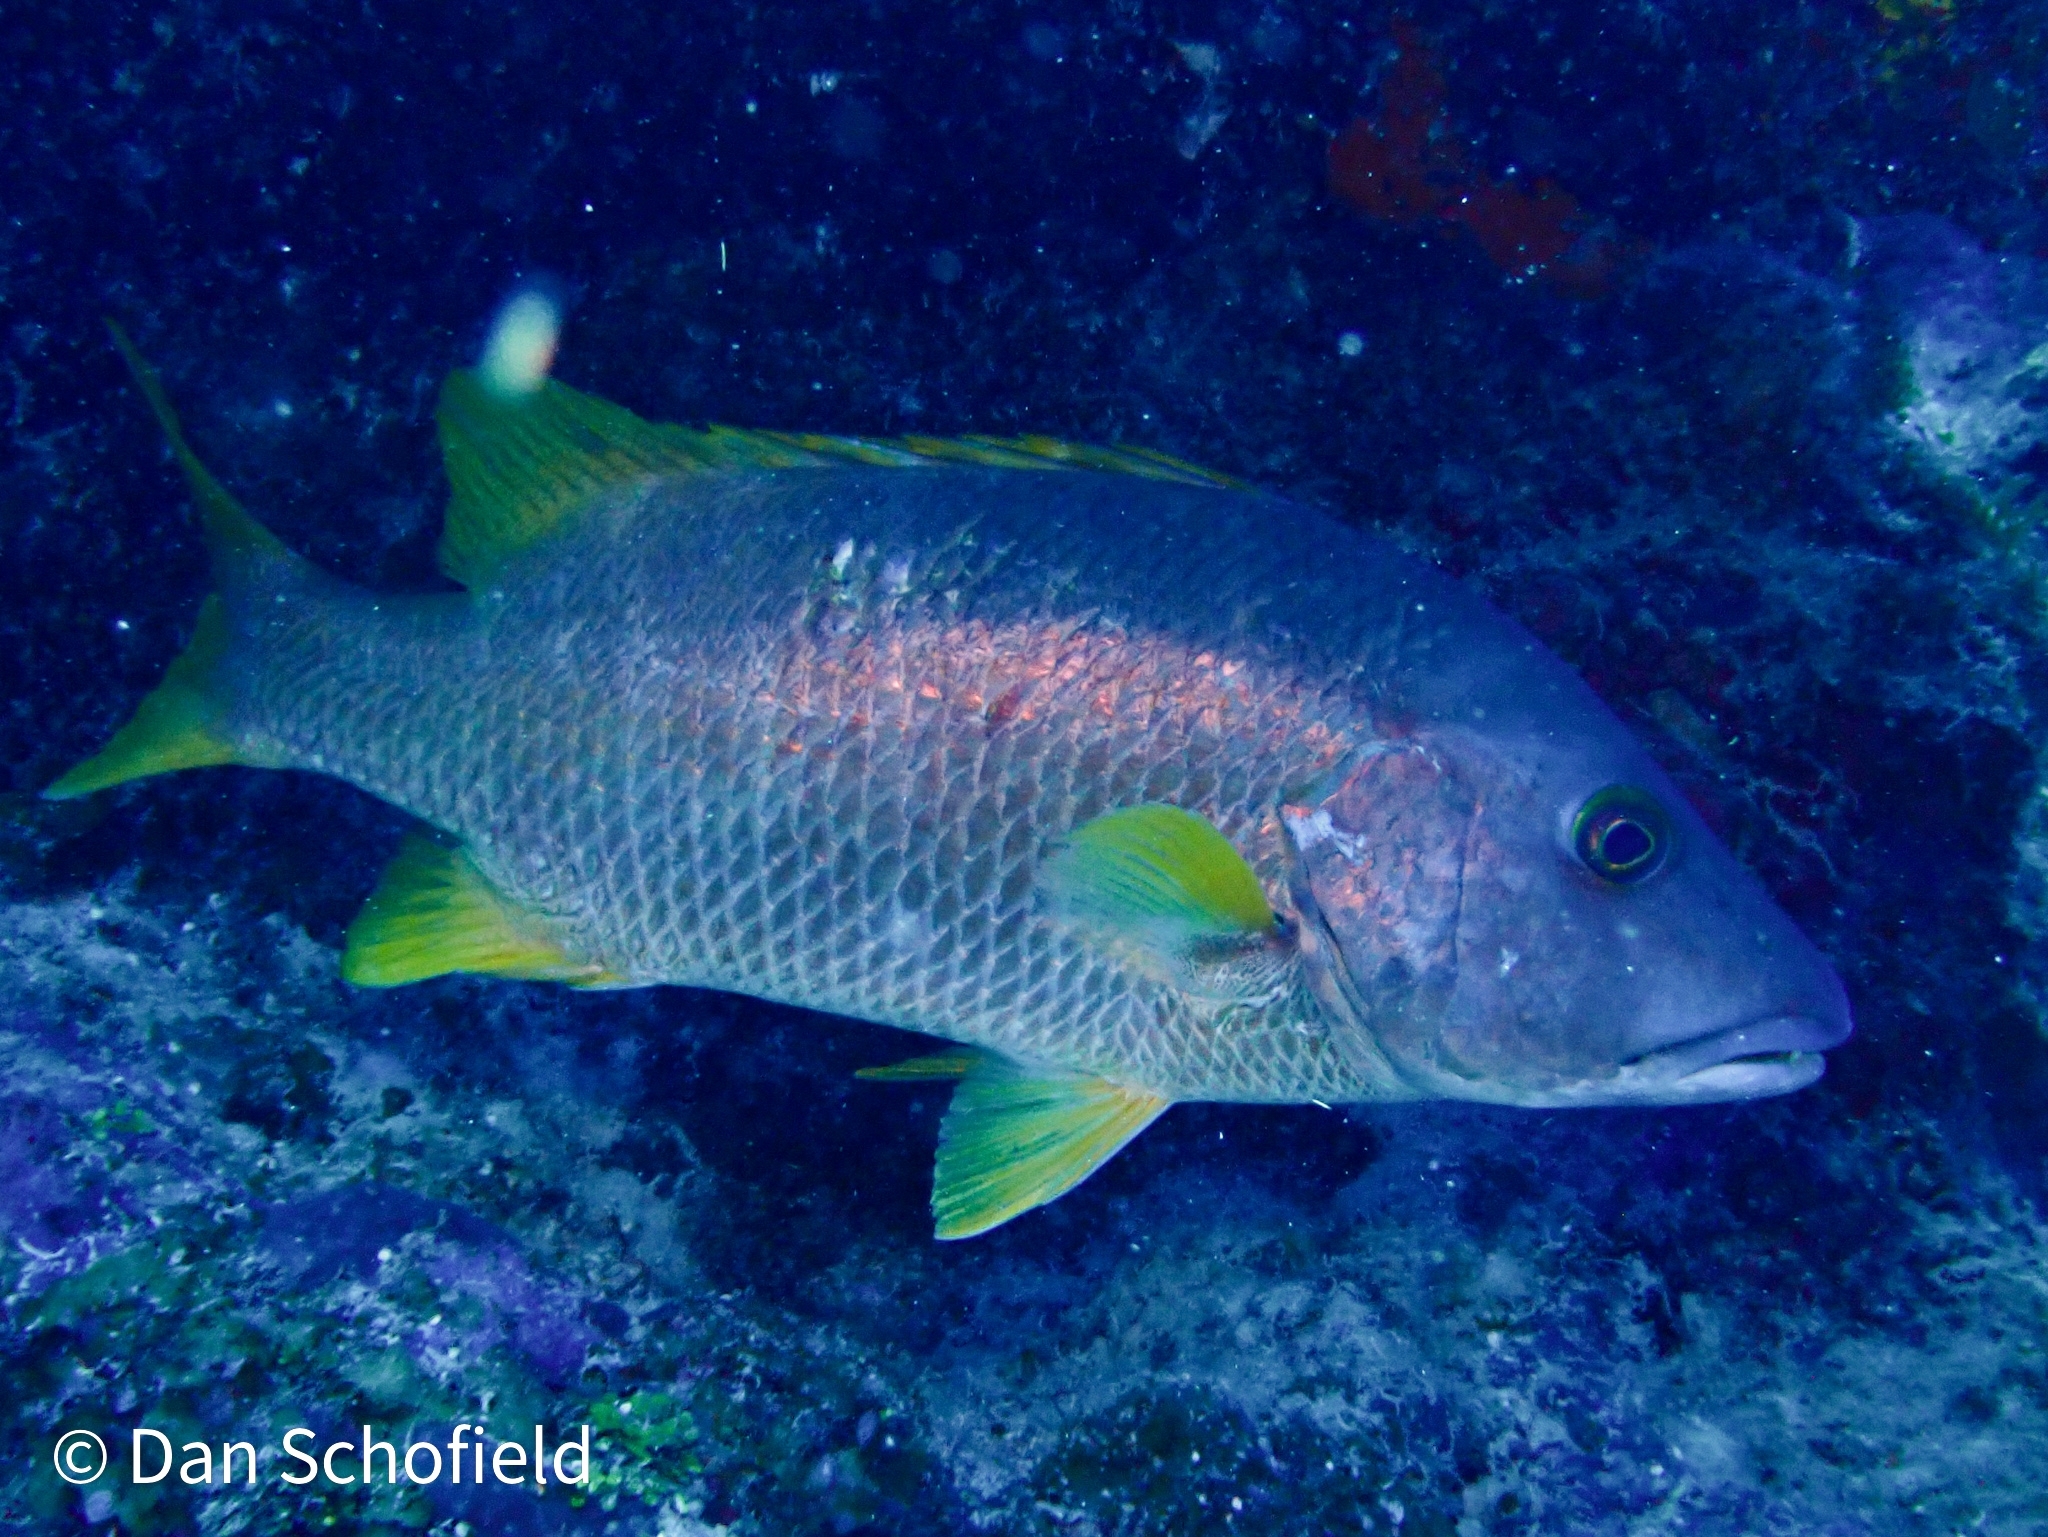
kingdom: Animalia
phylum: Chordata
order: Perciformes
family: Lutjanidae
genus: Lutjanus
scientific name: Lutjanus apodus
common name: Schoolmaster
